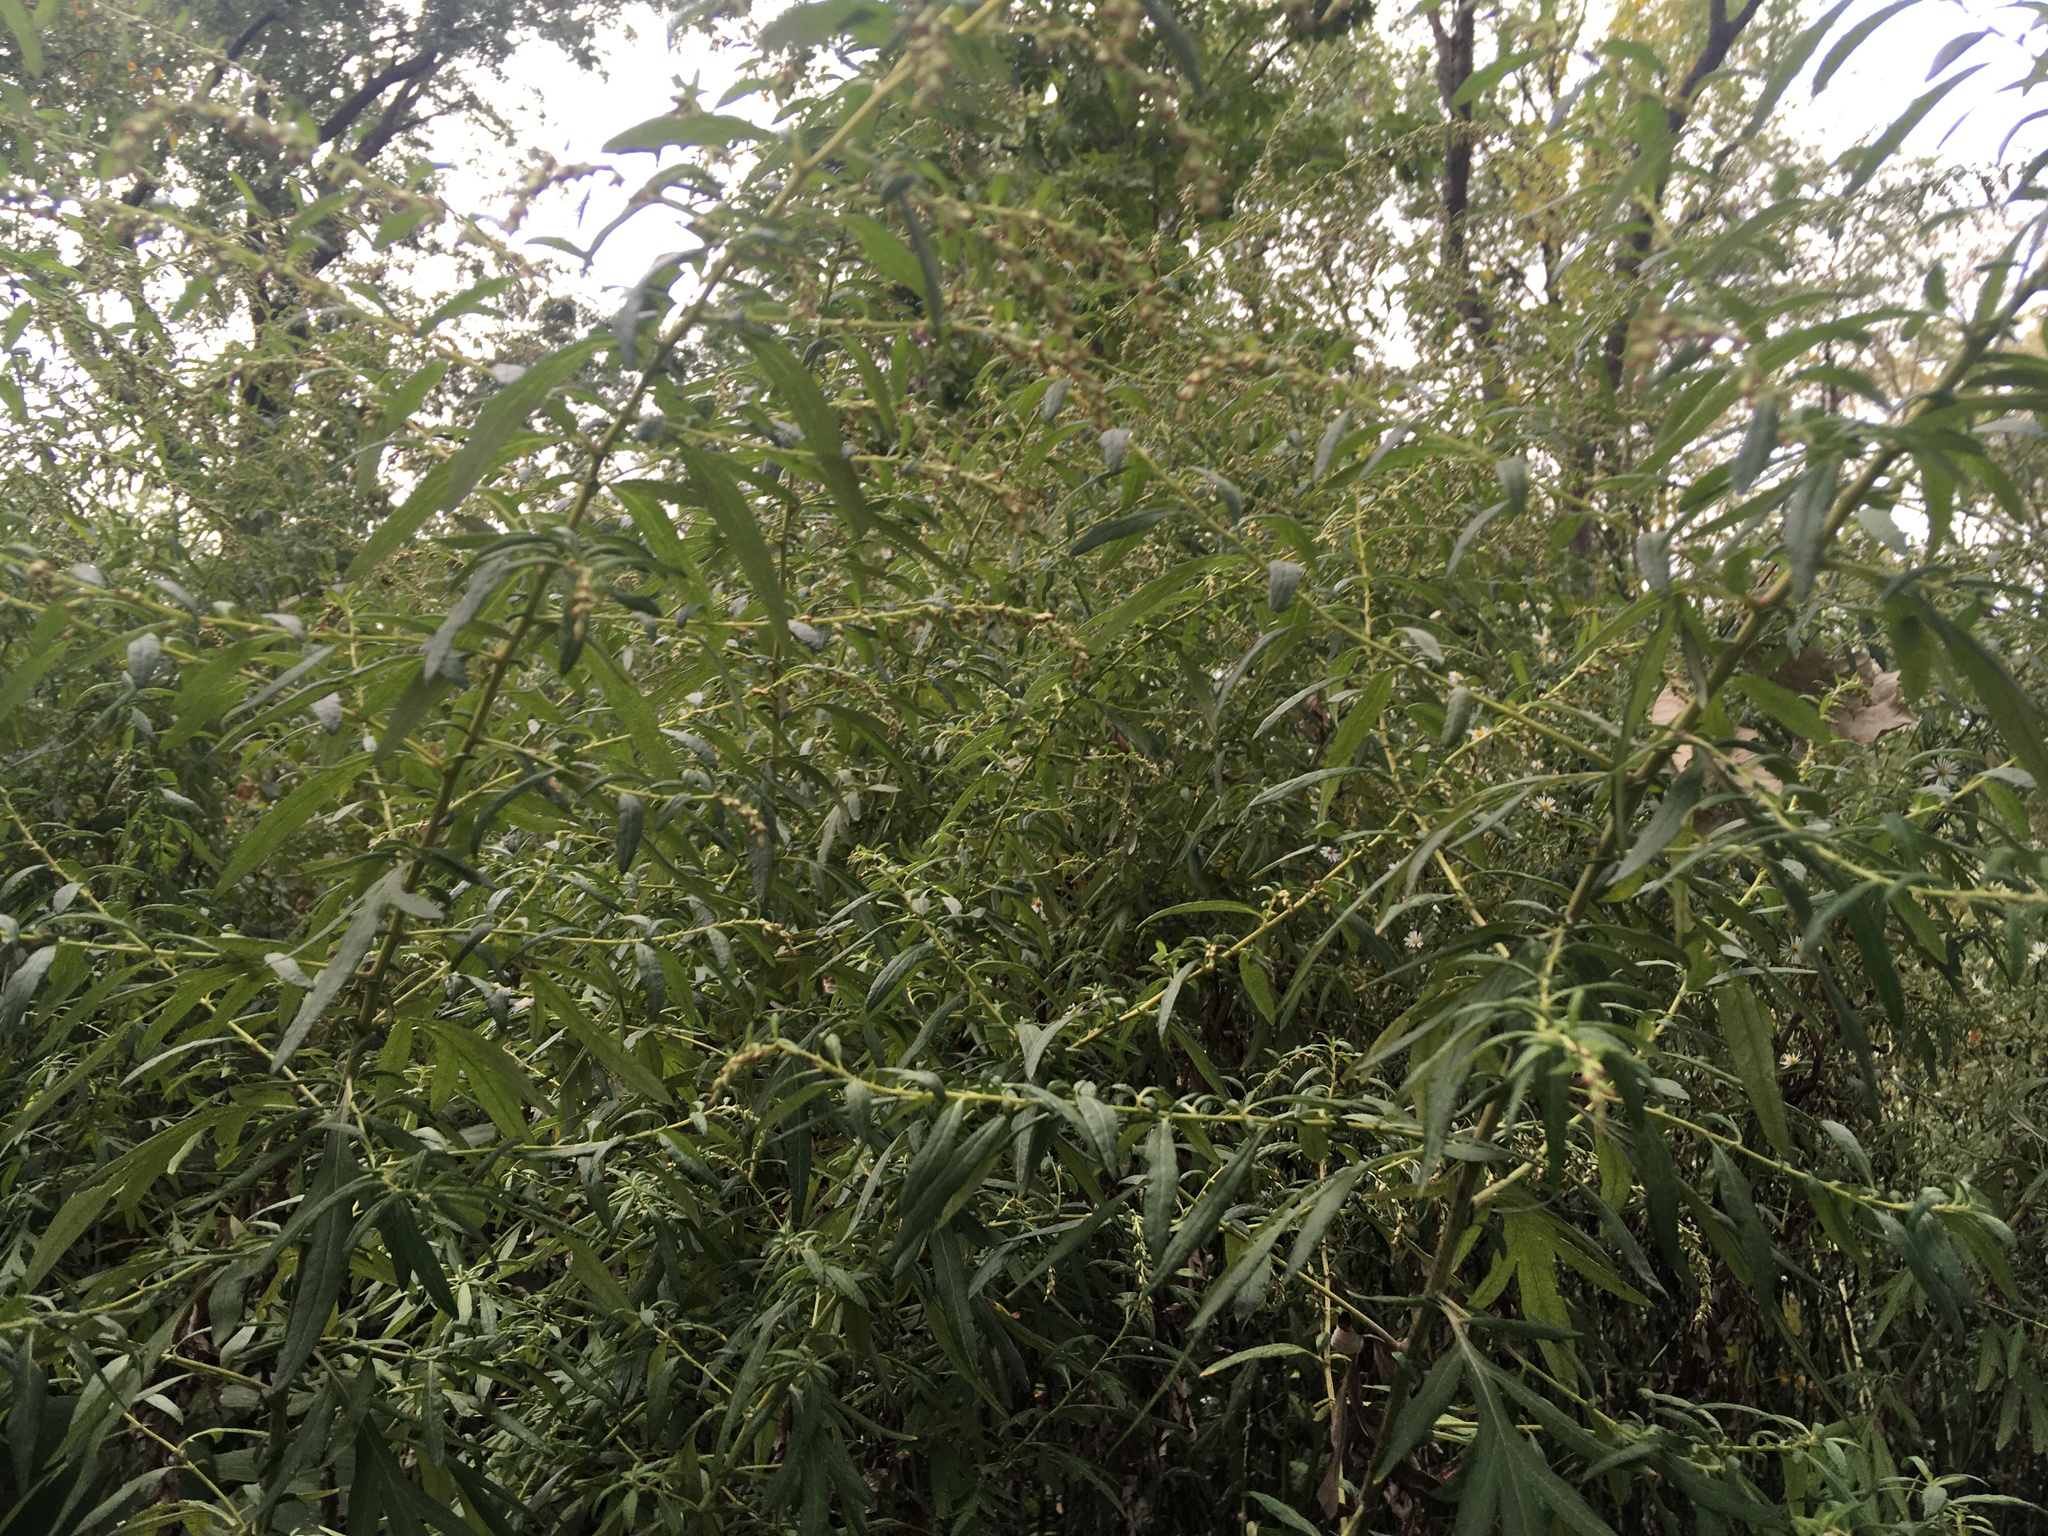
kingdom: Plantae
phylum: Tracheophyta
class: Magnoliopsida
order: Asterales
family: Asteraceae
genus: Artemisia
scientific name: Artemisia vulgaris
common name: Mugwort
